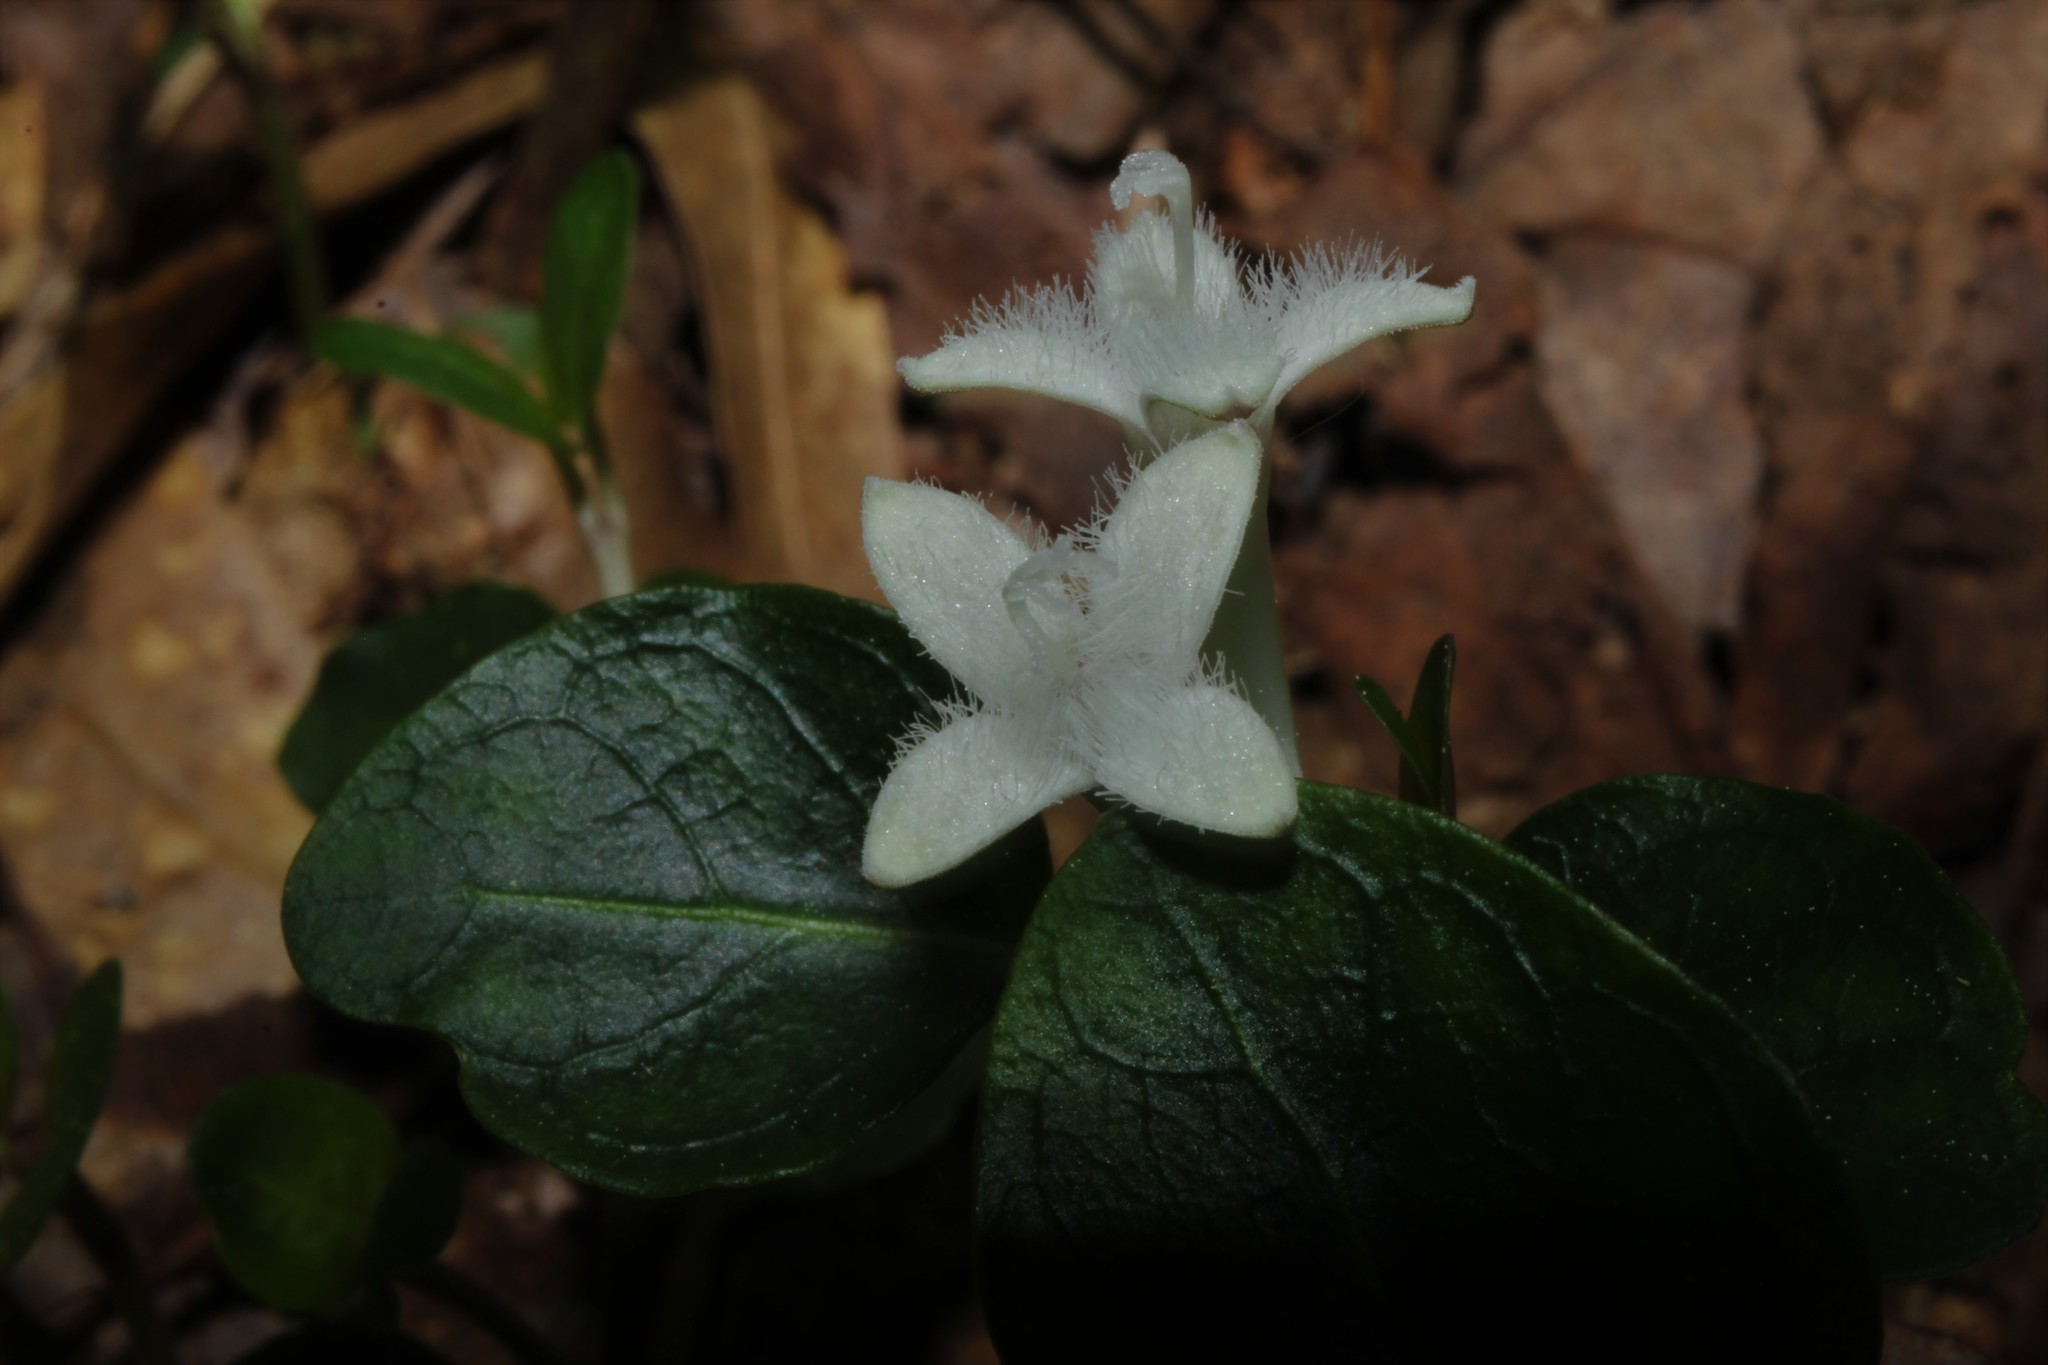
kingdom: Plantae
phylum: Tracheophyta
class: Magnoliopsida
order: Gentianales
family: Rubiaceae
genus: Mitchella
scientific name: Mitchella repens
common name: Partridge-berry
